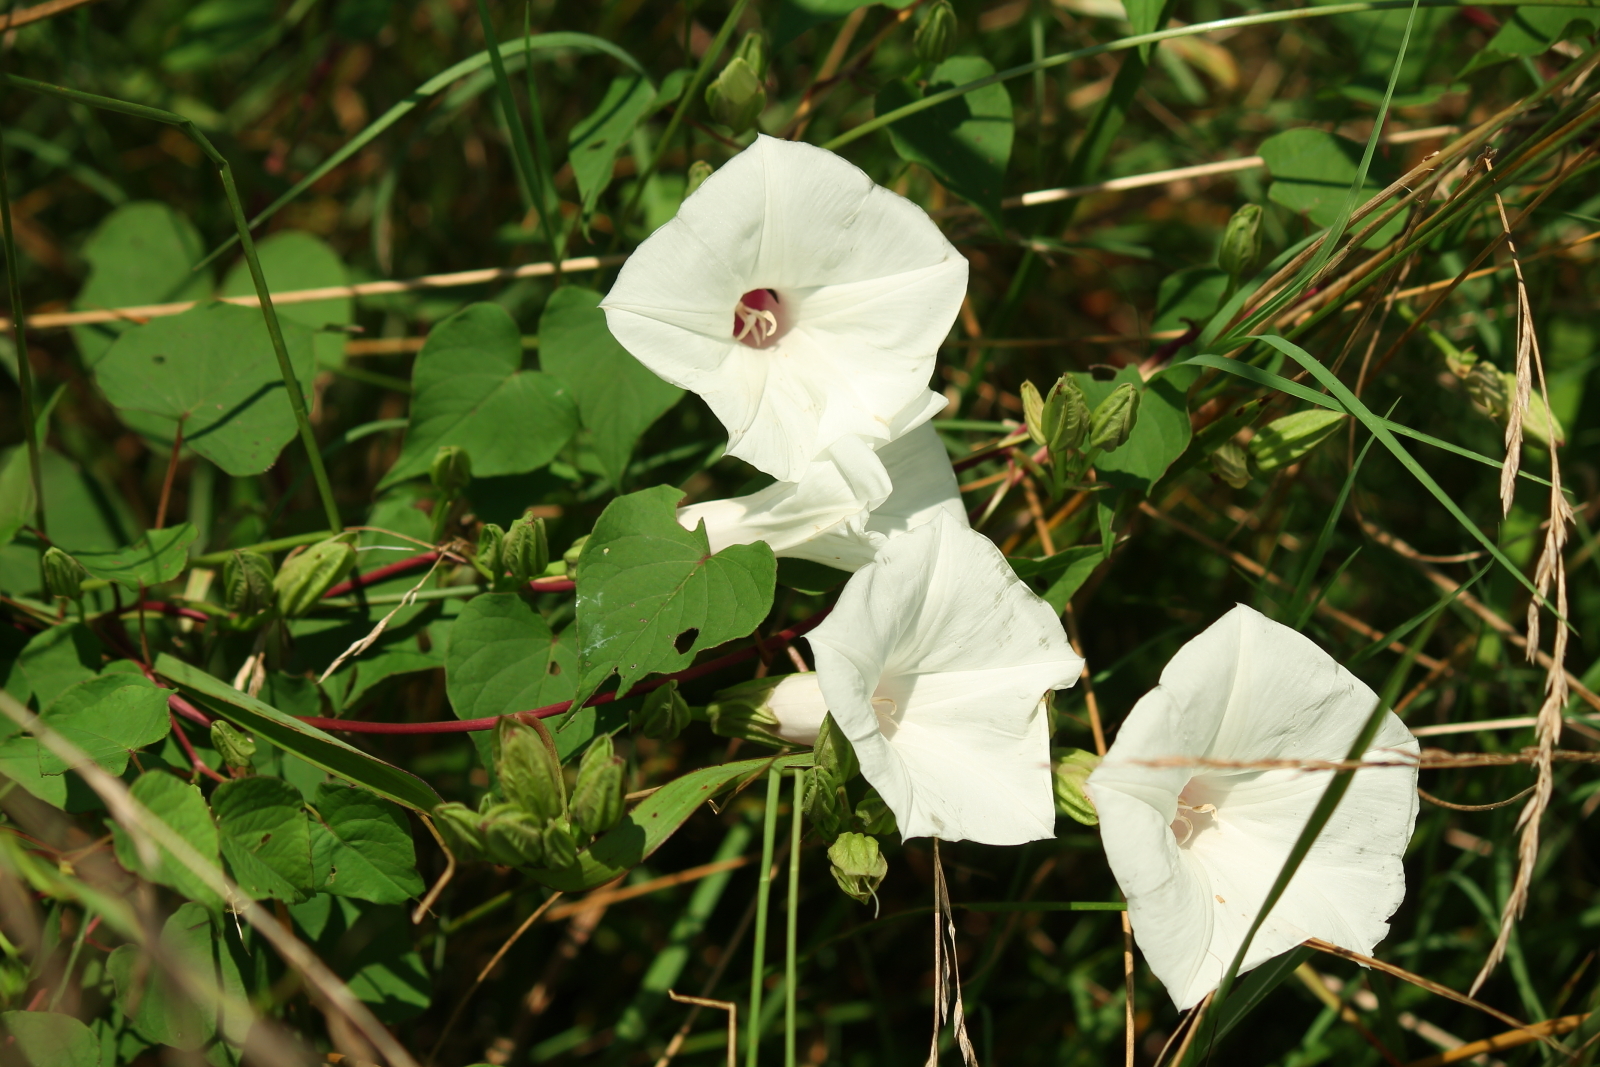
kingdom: Plantae
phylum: Tracheophyta
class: Magnoliopsida
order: Solanales
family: Convolvulaceae
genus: Ipomoea
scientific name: Ipomoea pandurata
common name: Man-of-the-earth
